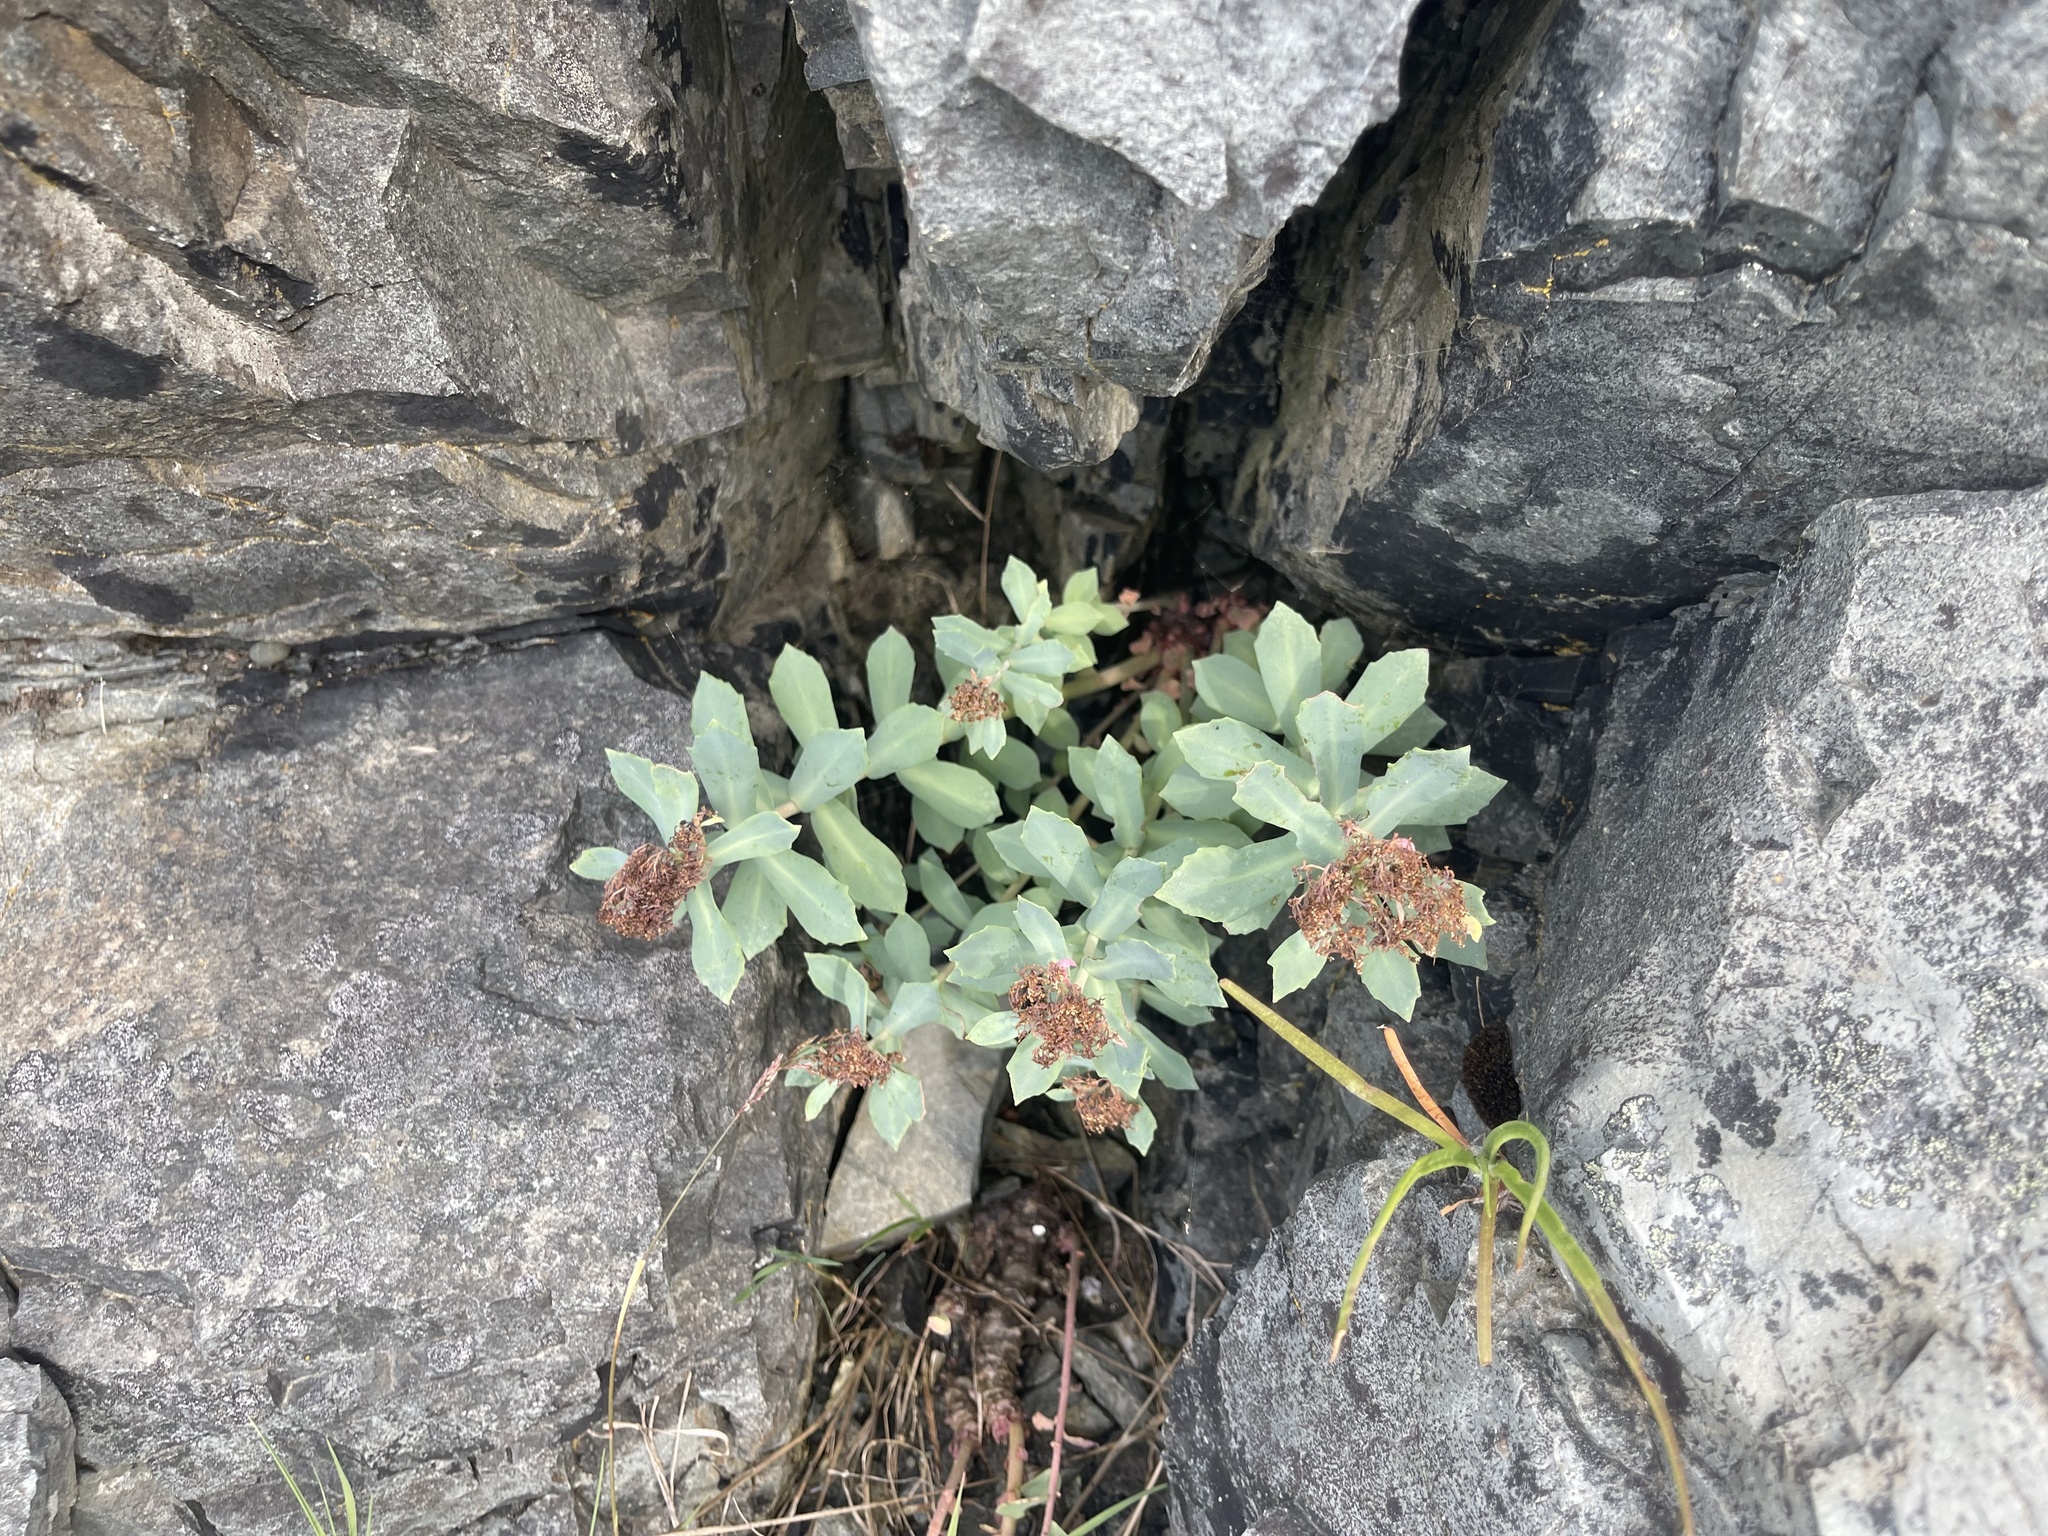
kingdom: Plantae
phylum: Tracheophyta
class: Magnoliopsida
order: Saxifragales
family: Crassulaceae
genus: Rhodiola
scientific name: Rhodiola rosea
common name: Roseroot
